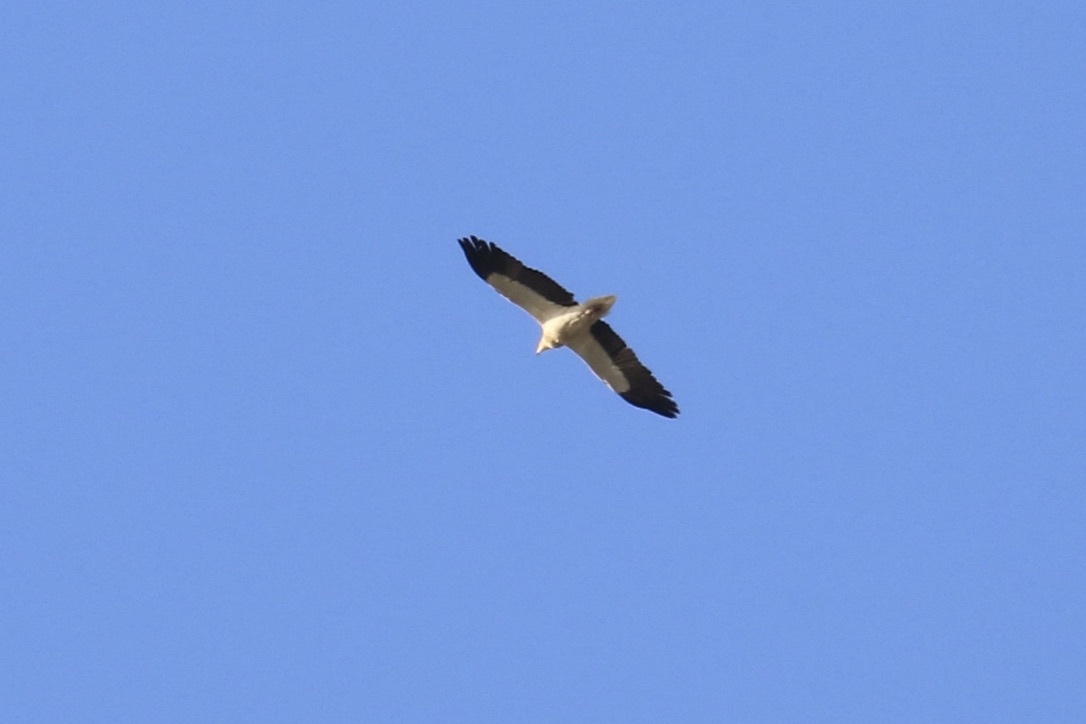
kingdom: Animalia
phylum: Chordata
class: Aves
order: Accipitriformes
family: Accipitridae
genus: Neophron
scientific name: Neophron percnopterus
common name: Egyptian vulture
